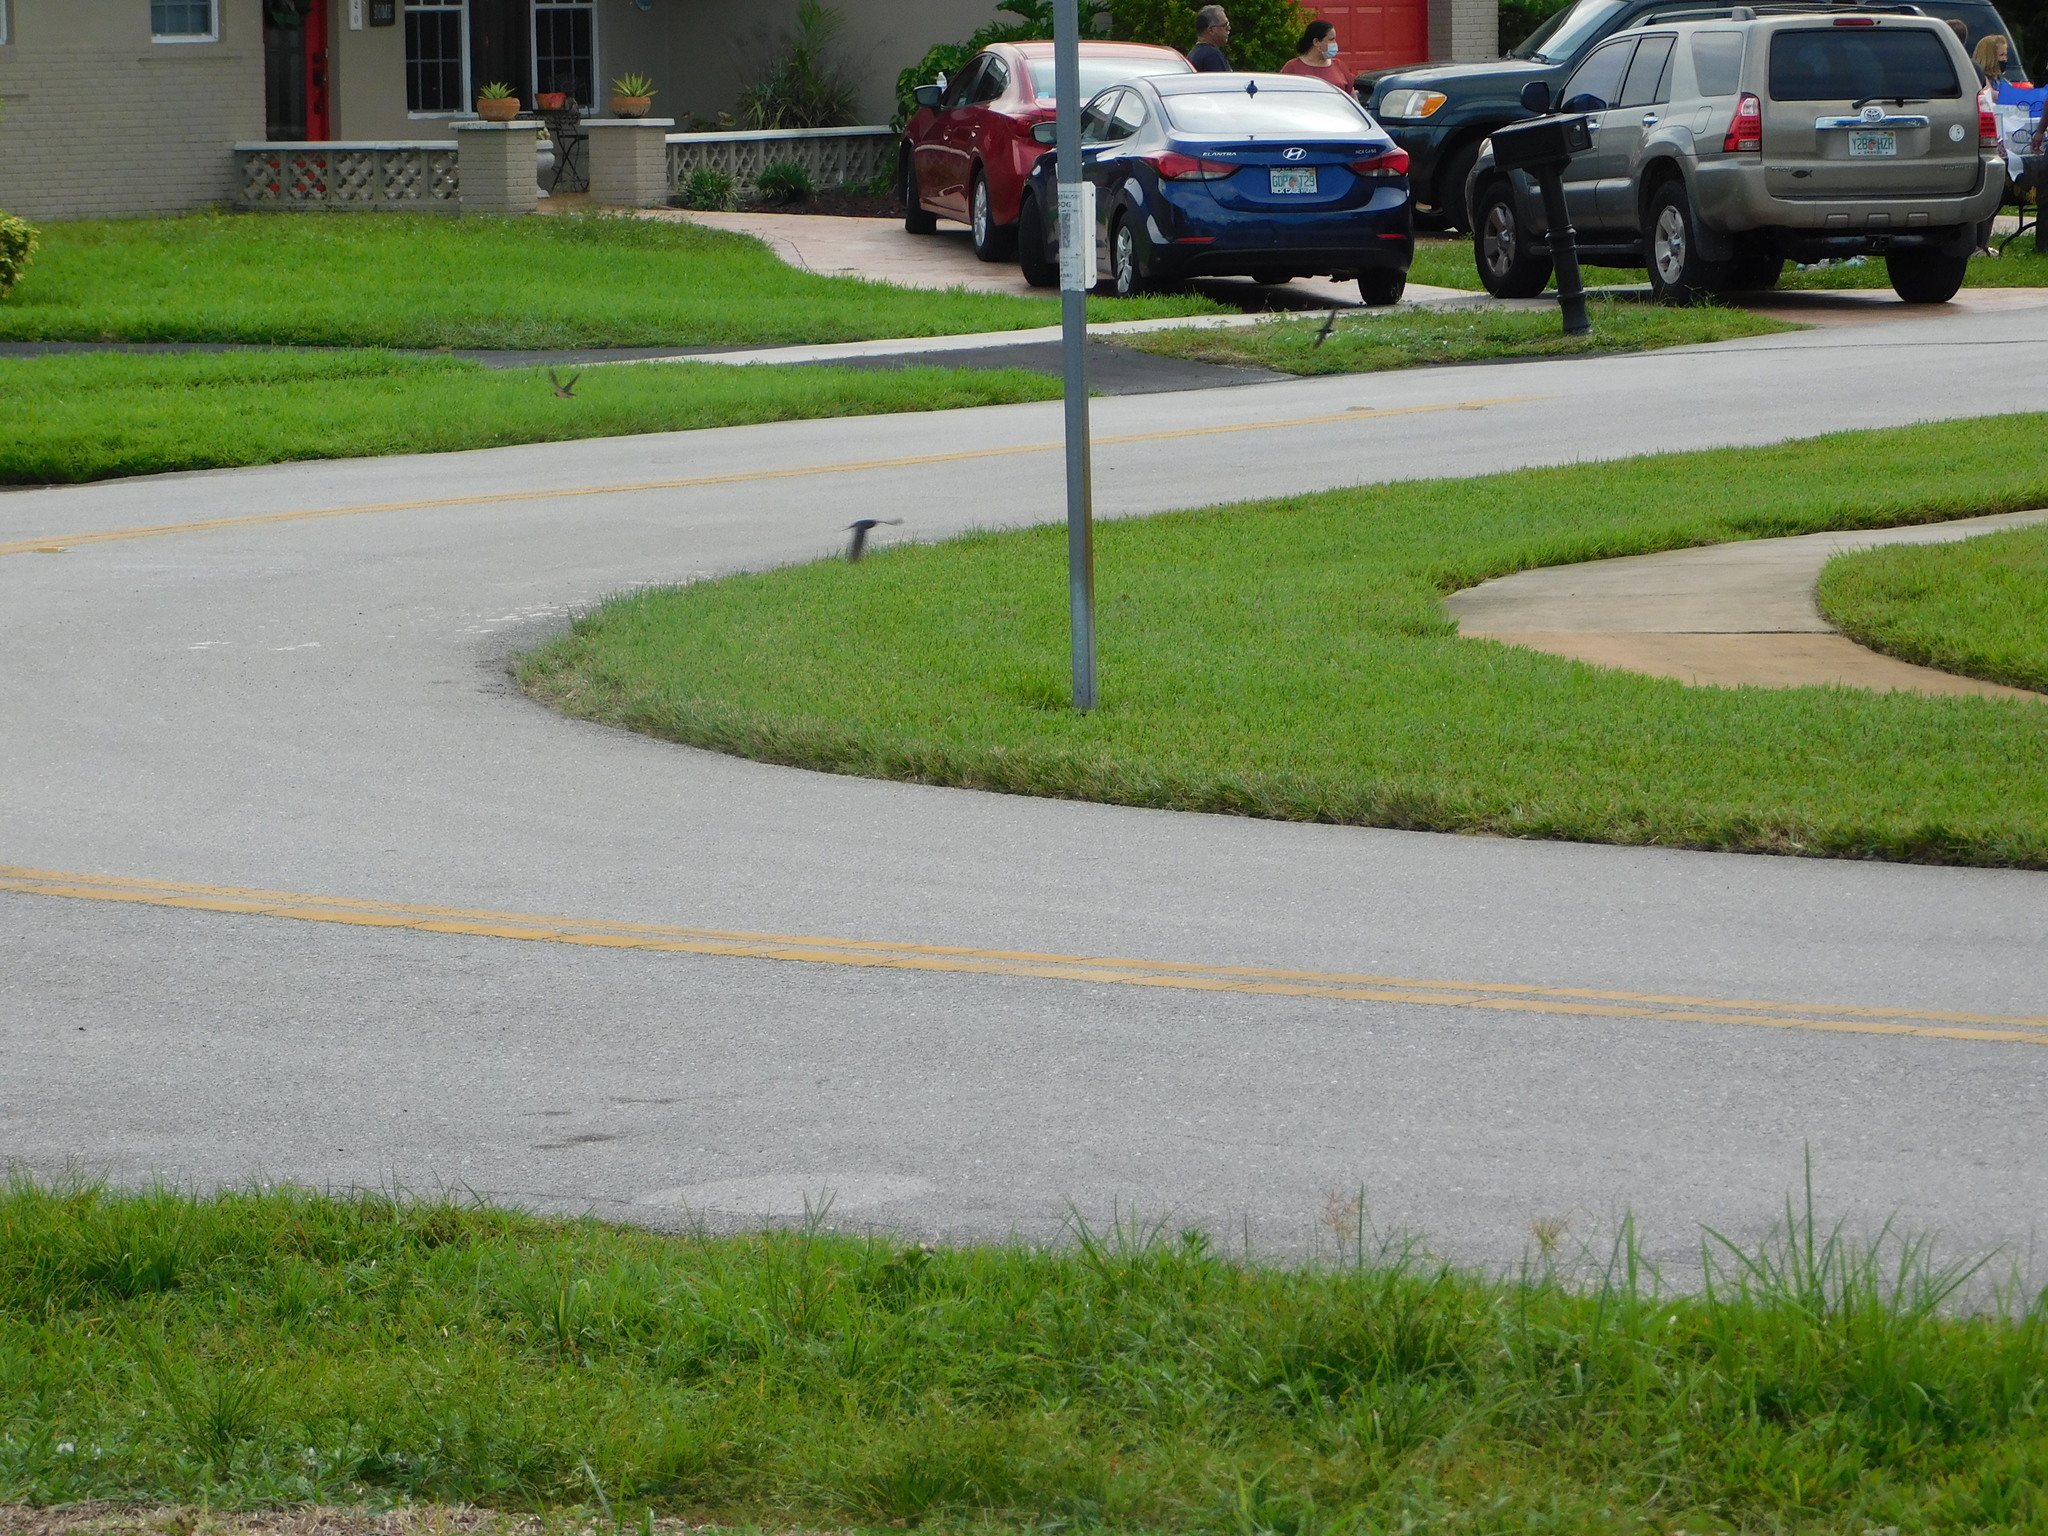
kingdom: Animalia
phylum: Chordata
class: Aves
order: Passeriformes
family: Hirundinidae
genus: Hirundo
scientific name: Hirundo rustica
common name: Barn swallow
